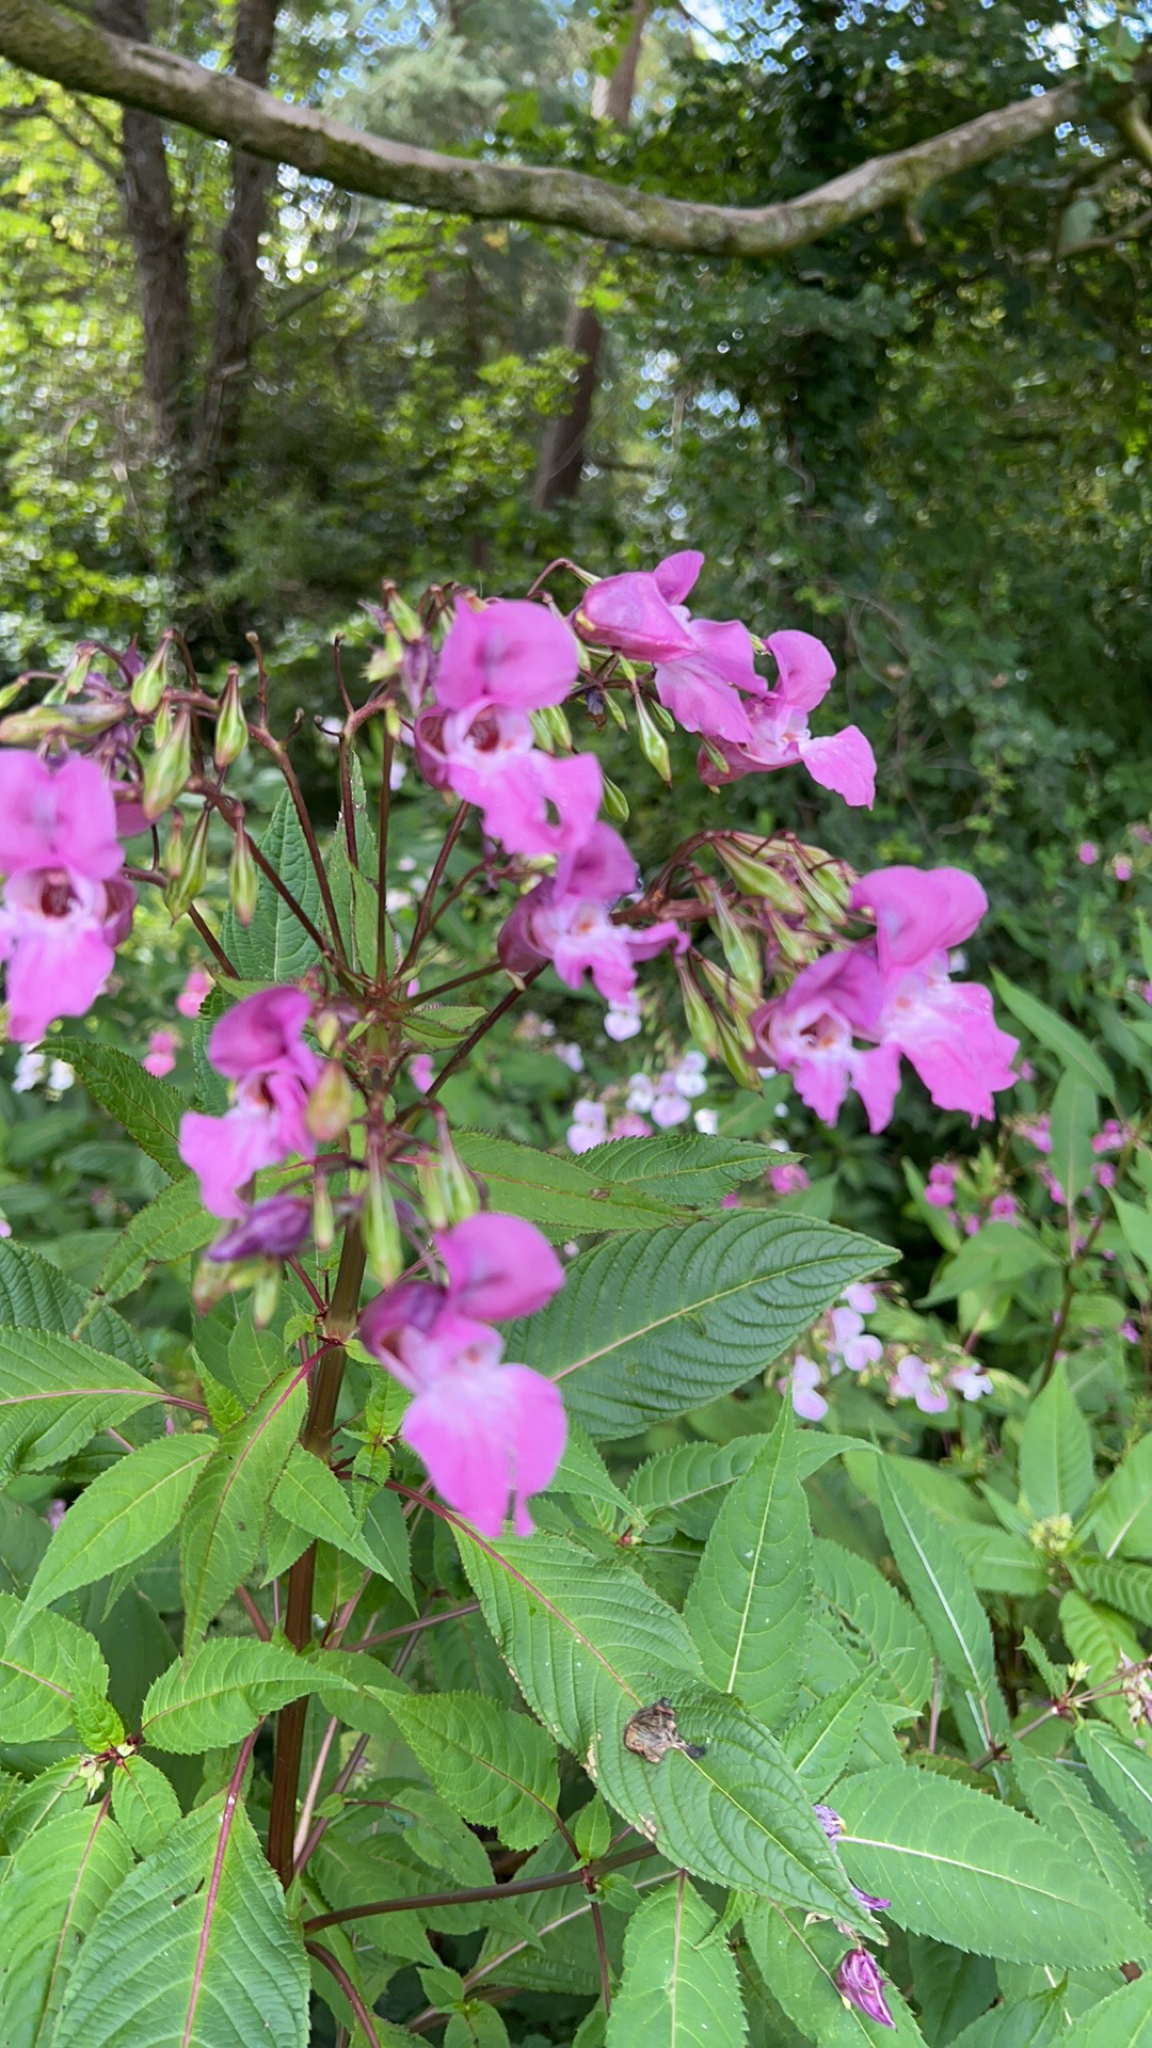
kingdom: Plantae
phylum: Tracheophyta
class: Magnoliopsida
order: Ericales
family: Balsaminaceae
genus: Impatiens
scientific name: Impatiens glandulifera
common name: Himalayan balsam
